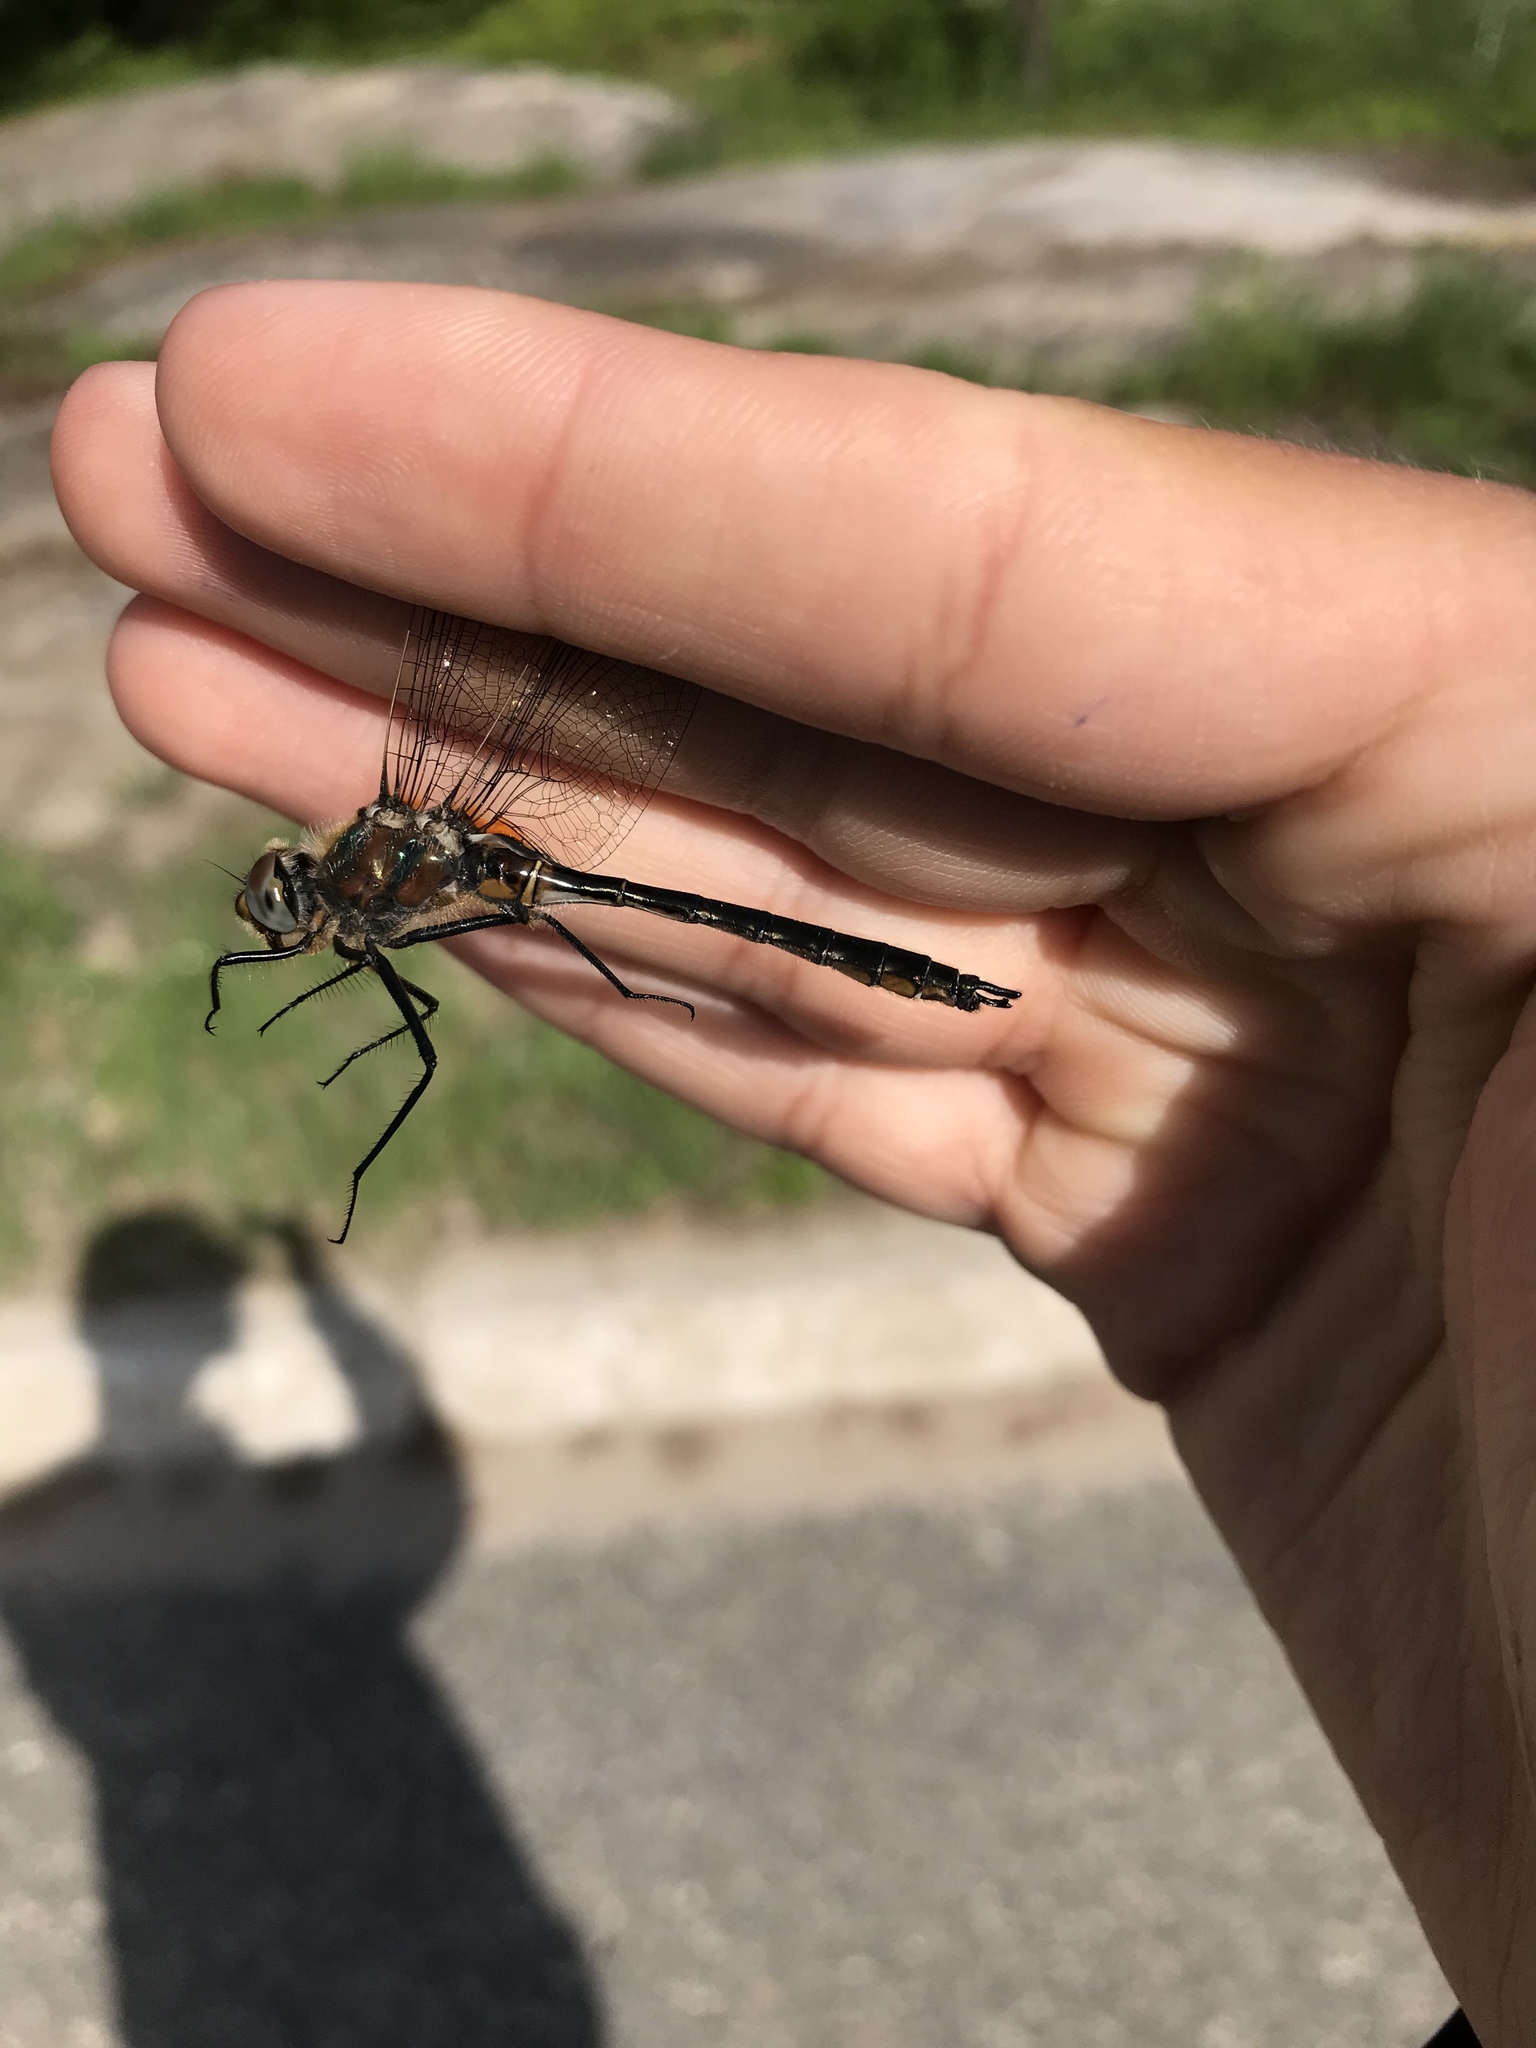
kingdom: Animalia
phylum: Arthropoda
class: Insecta
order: Odonata
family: Corduliidae
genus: Cordulia
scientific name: Cordulia shurtleffii
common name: American emerald
